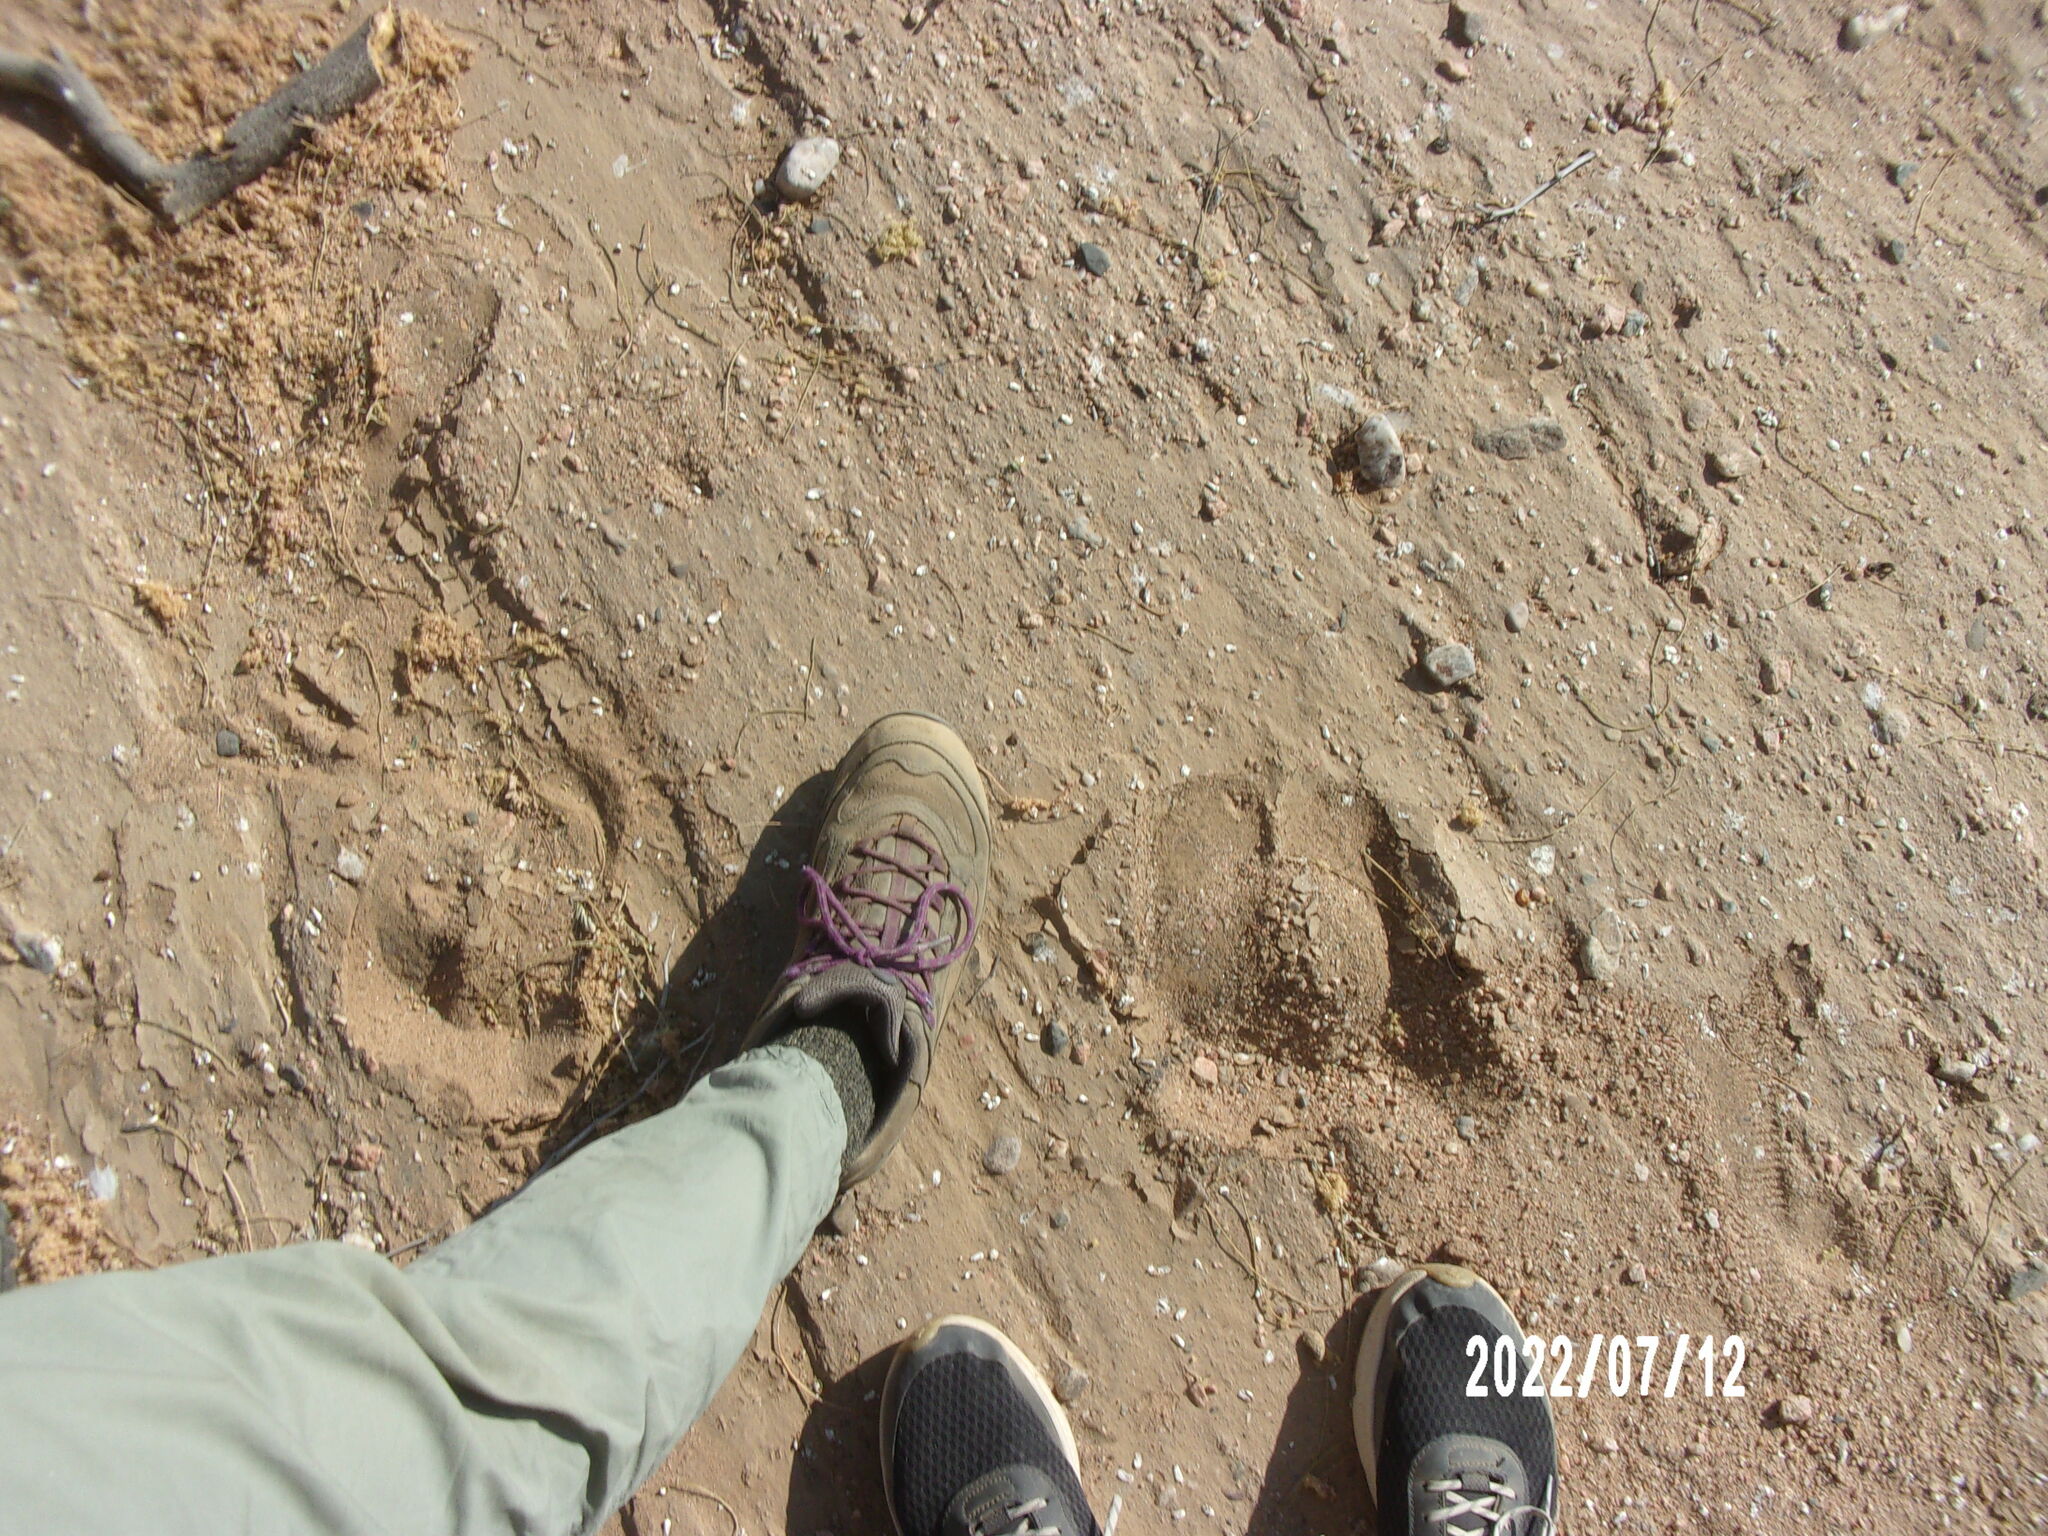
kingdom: Animalia
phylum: Chordata
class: Mammalia
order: Artiodactyla
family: Giraffidae
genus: Giraffa
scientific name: Giraffa giraffa
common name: Southern giraffe
